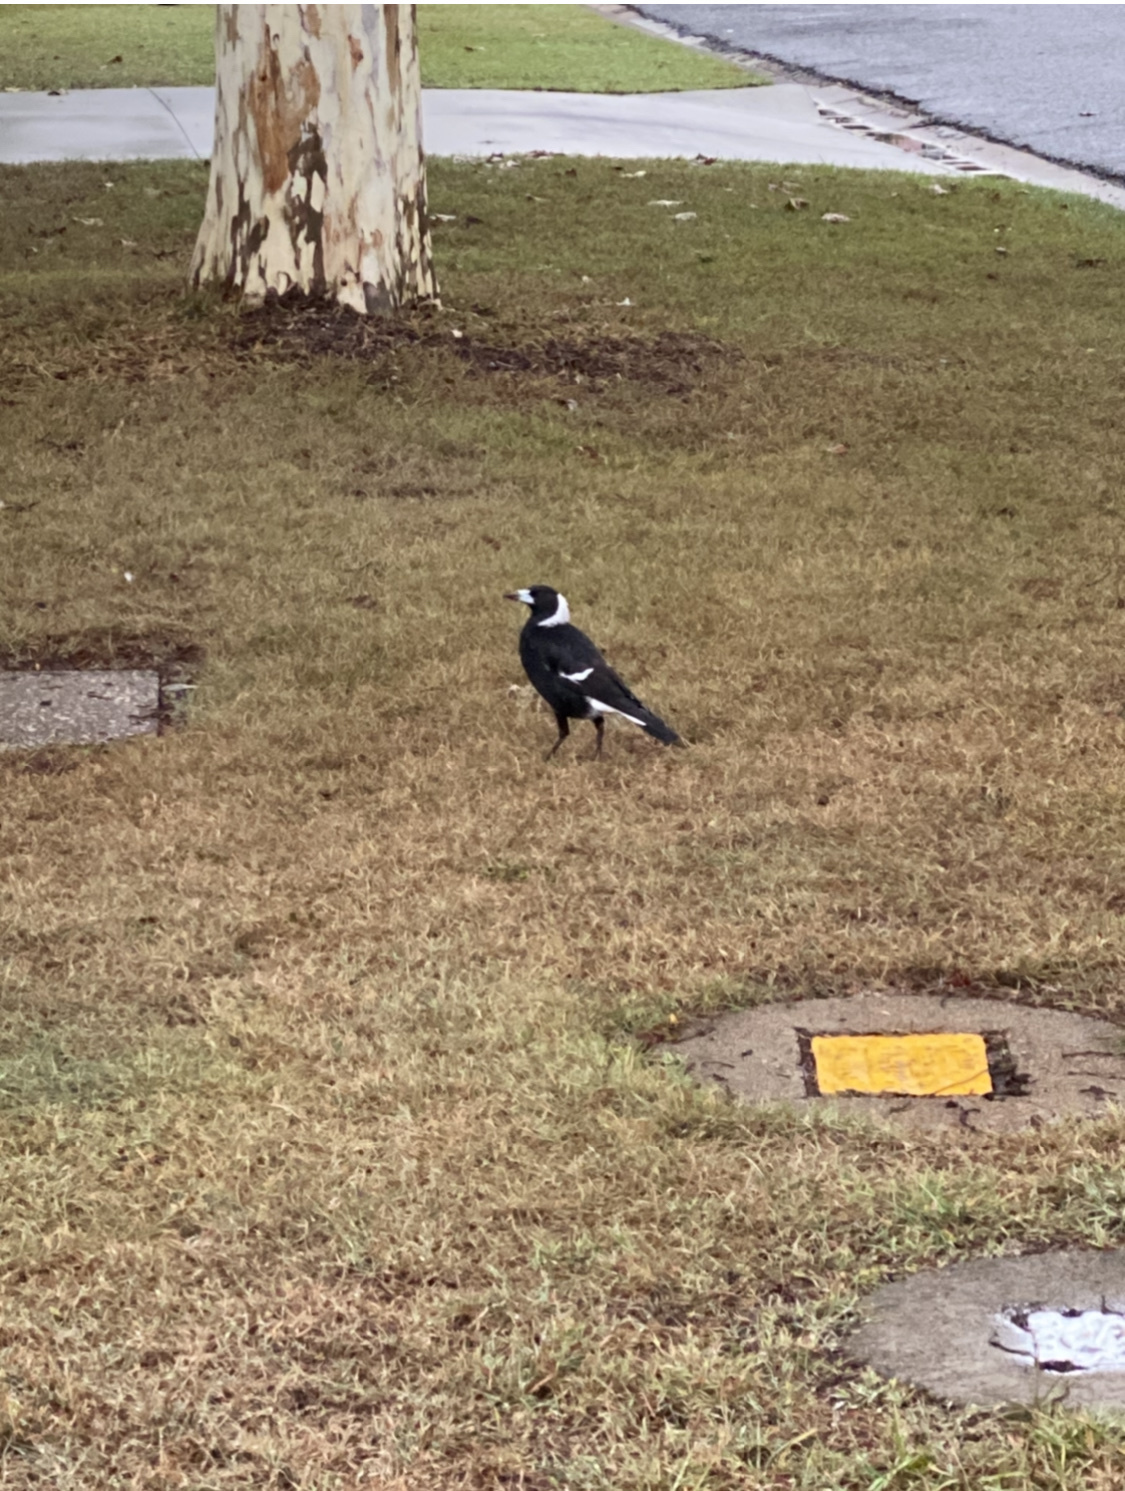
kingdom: Animalia
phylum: Chordata
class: Aves
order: Passeriformes
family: Cracticidae
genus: Gymnorhina
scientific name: Gymnorhina tibicen
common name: Australian magpie
